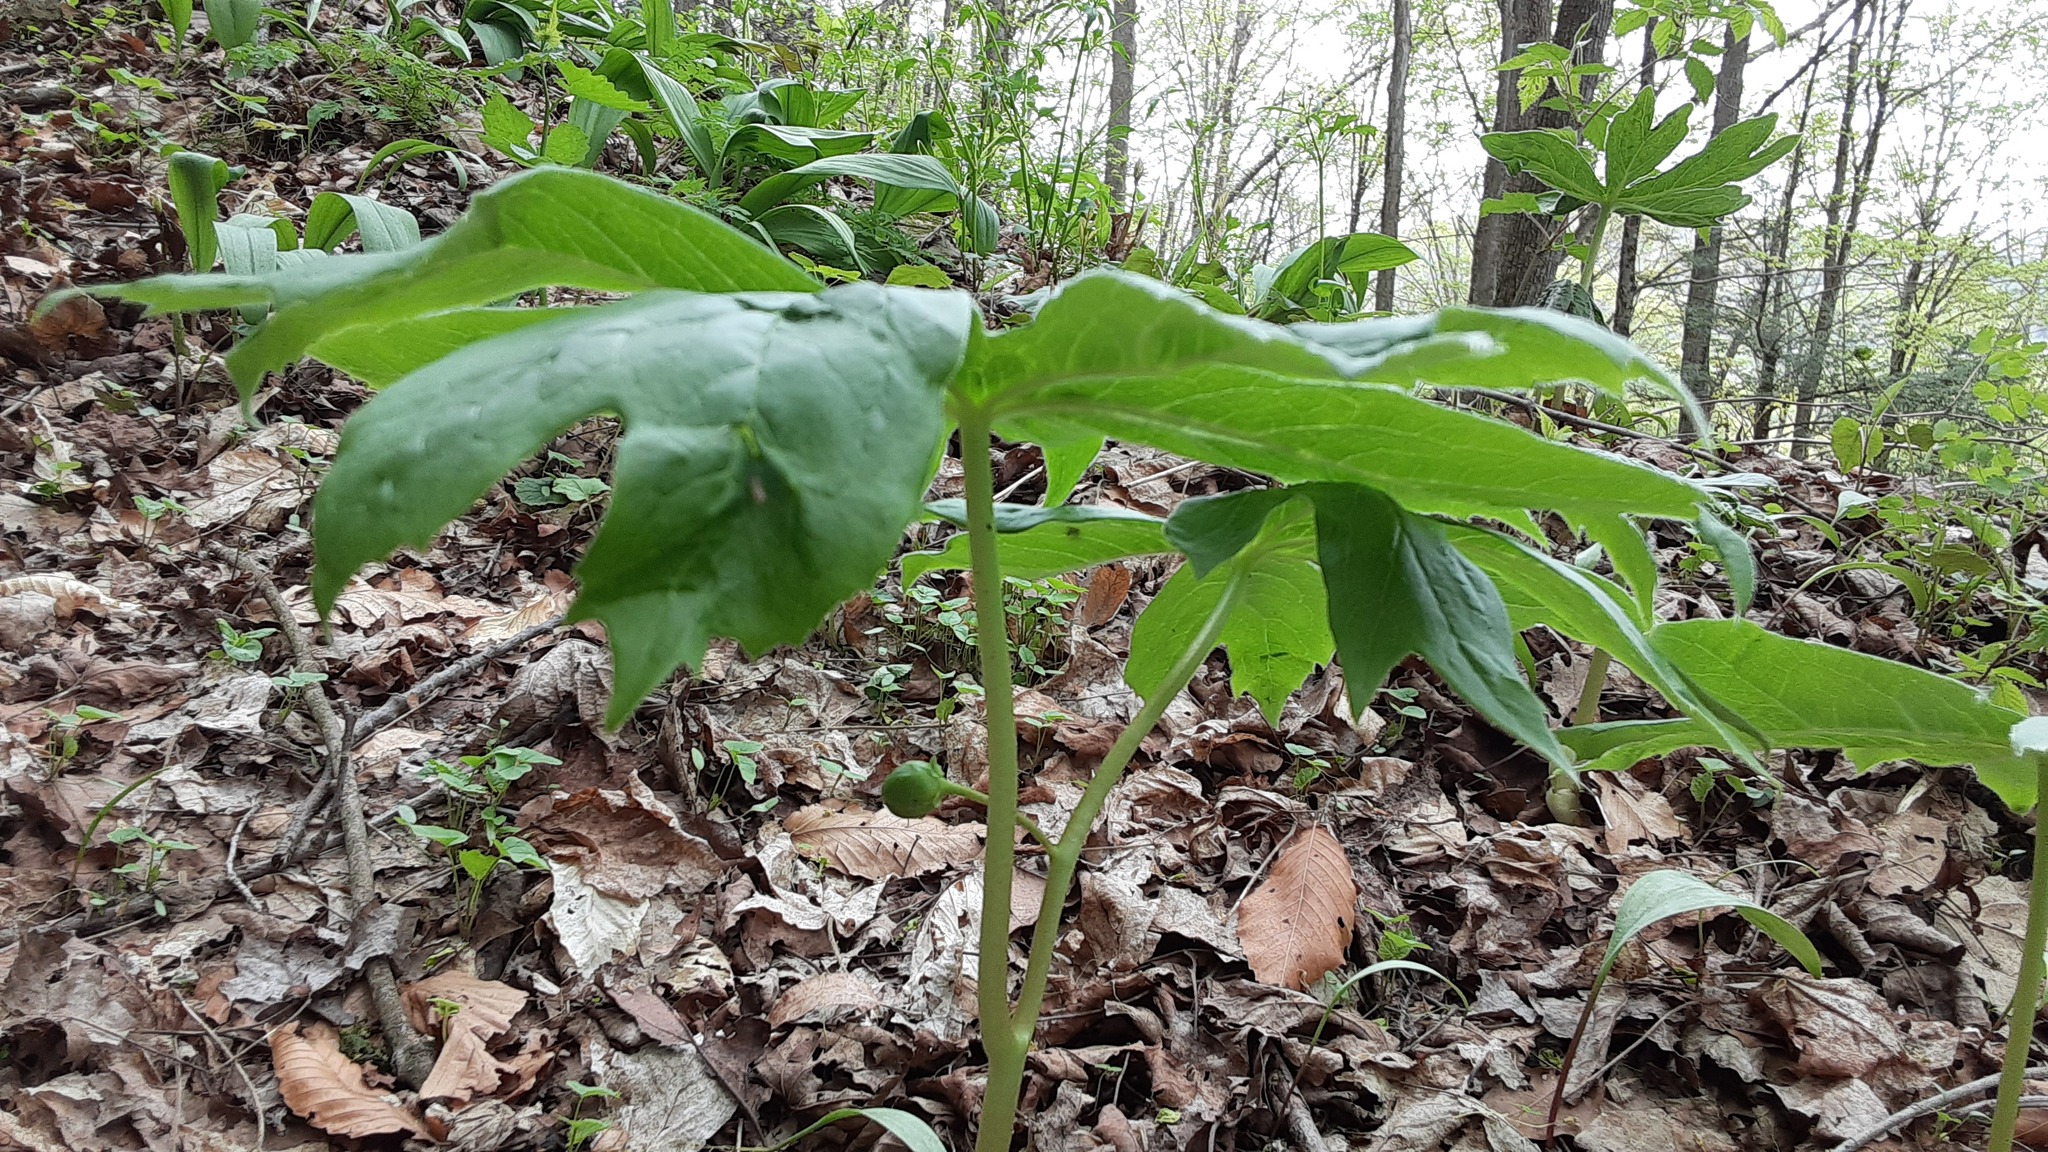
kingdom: Plantae
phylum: Tracheophyta
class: Magnoliopsida
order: Ranunculales
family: Berberidaceae
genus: Podophyllum
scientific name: Podophyllum peltatum
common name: Wild mandrake
